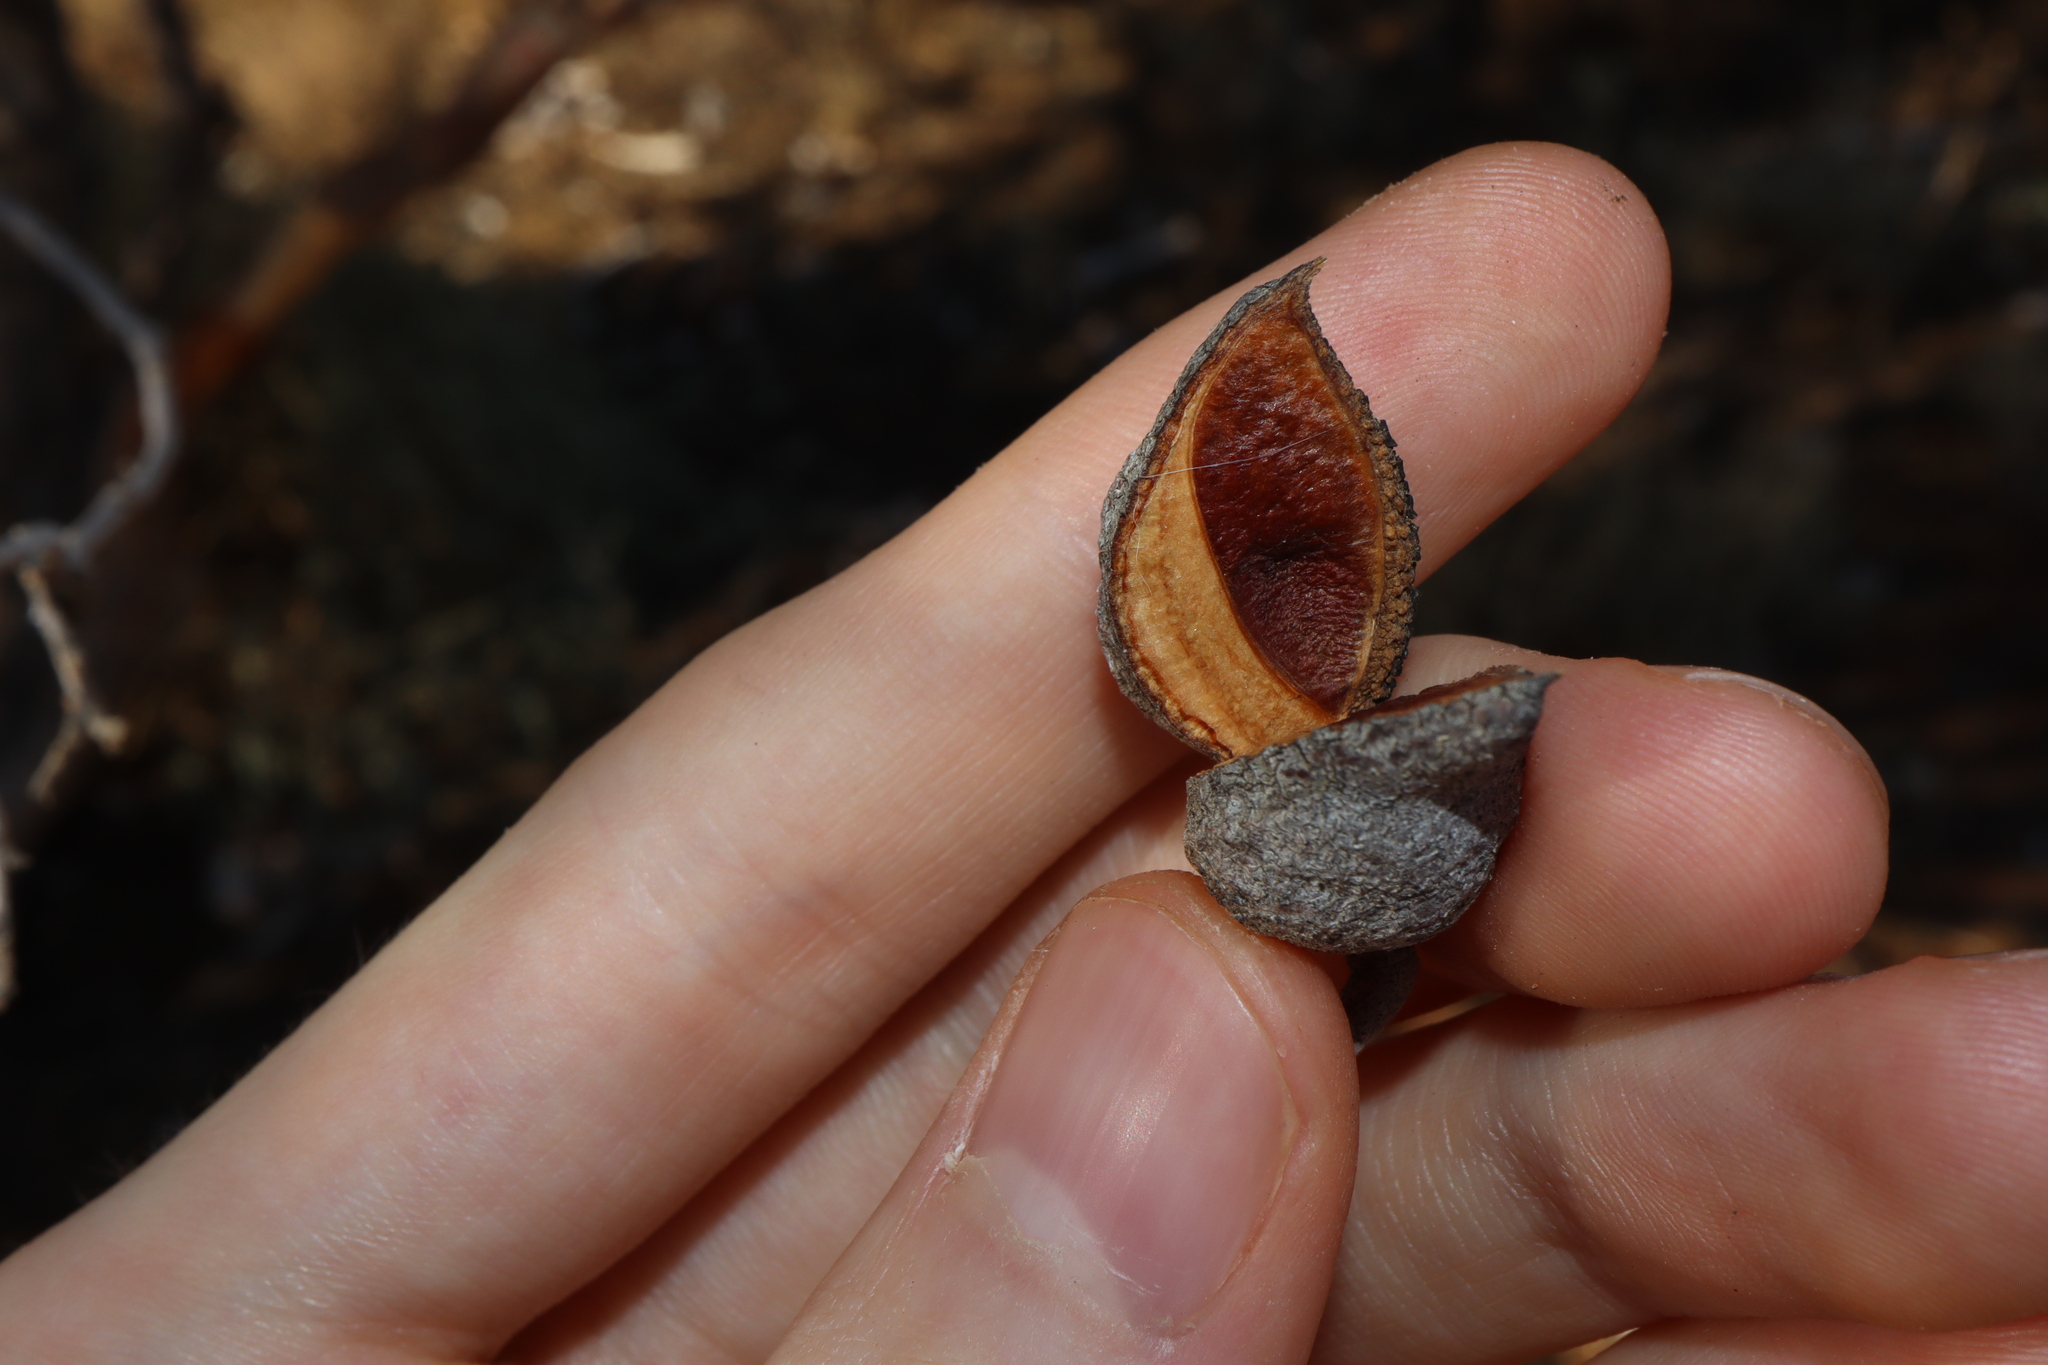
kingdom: Plantae
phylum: Tracheophyta
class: Magnoliopsida
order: Proteales
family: Proteaceae
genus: Hakea
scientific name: Hakea leucoptera
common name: Pinbush
